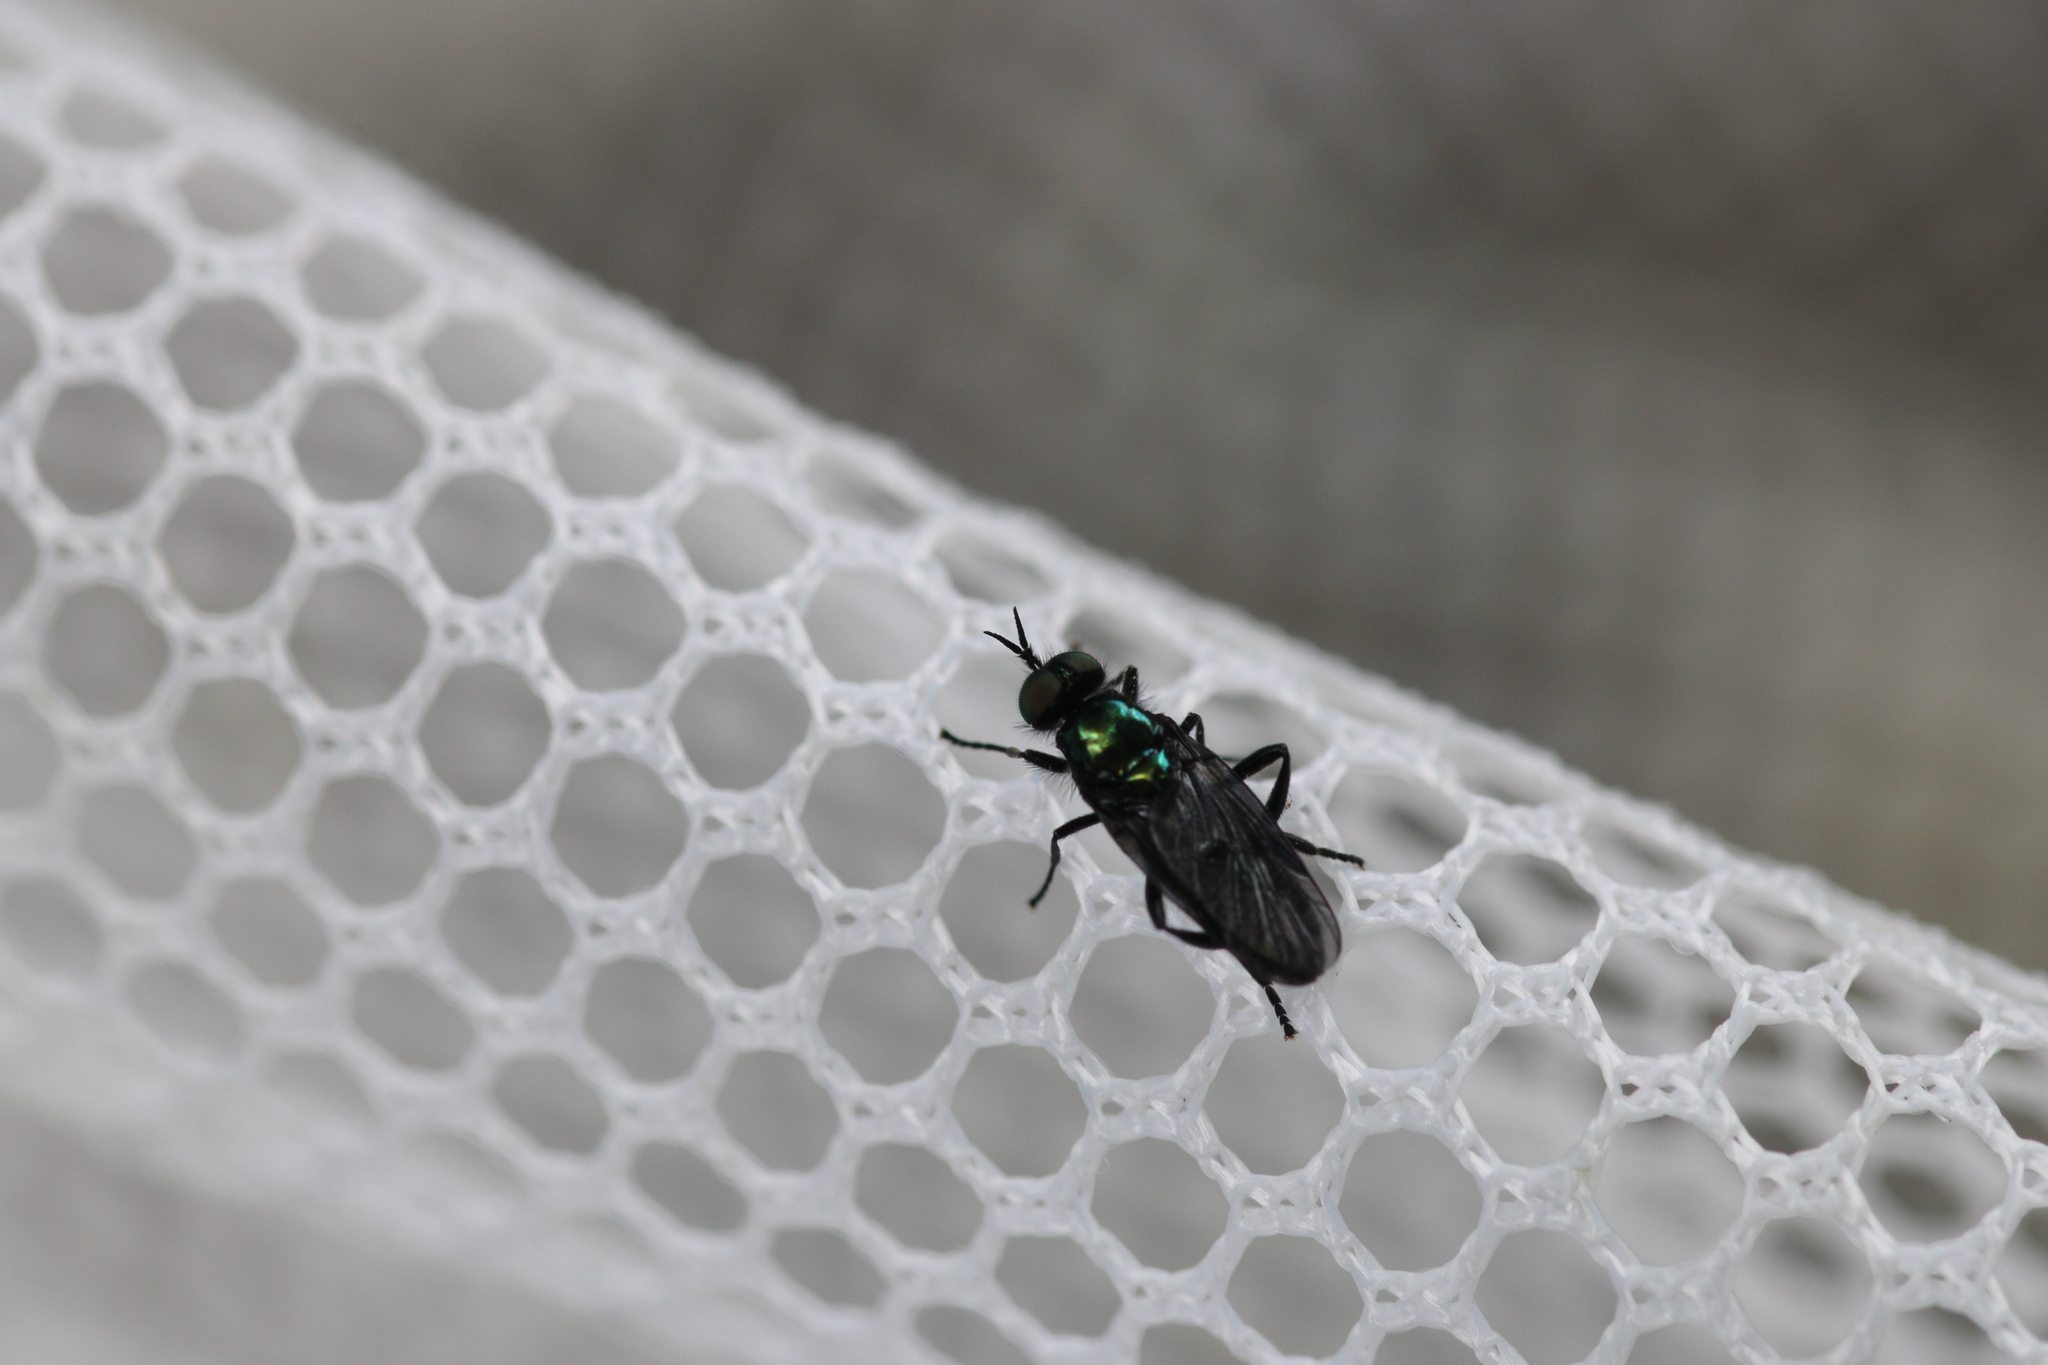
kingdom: Animalia
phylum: Arthropoda
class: Insecta
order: Diptera
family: Stratiomyidae
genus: Actina
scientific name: Actina chalybea
